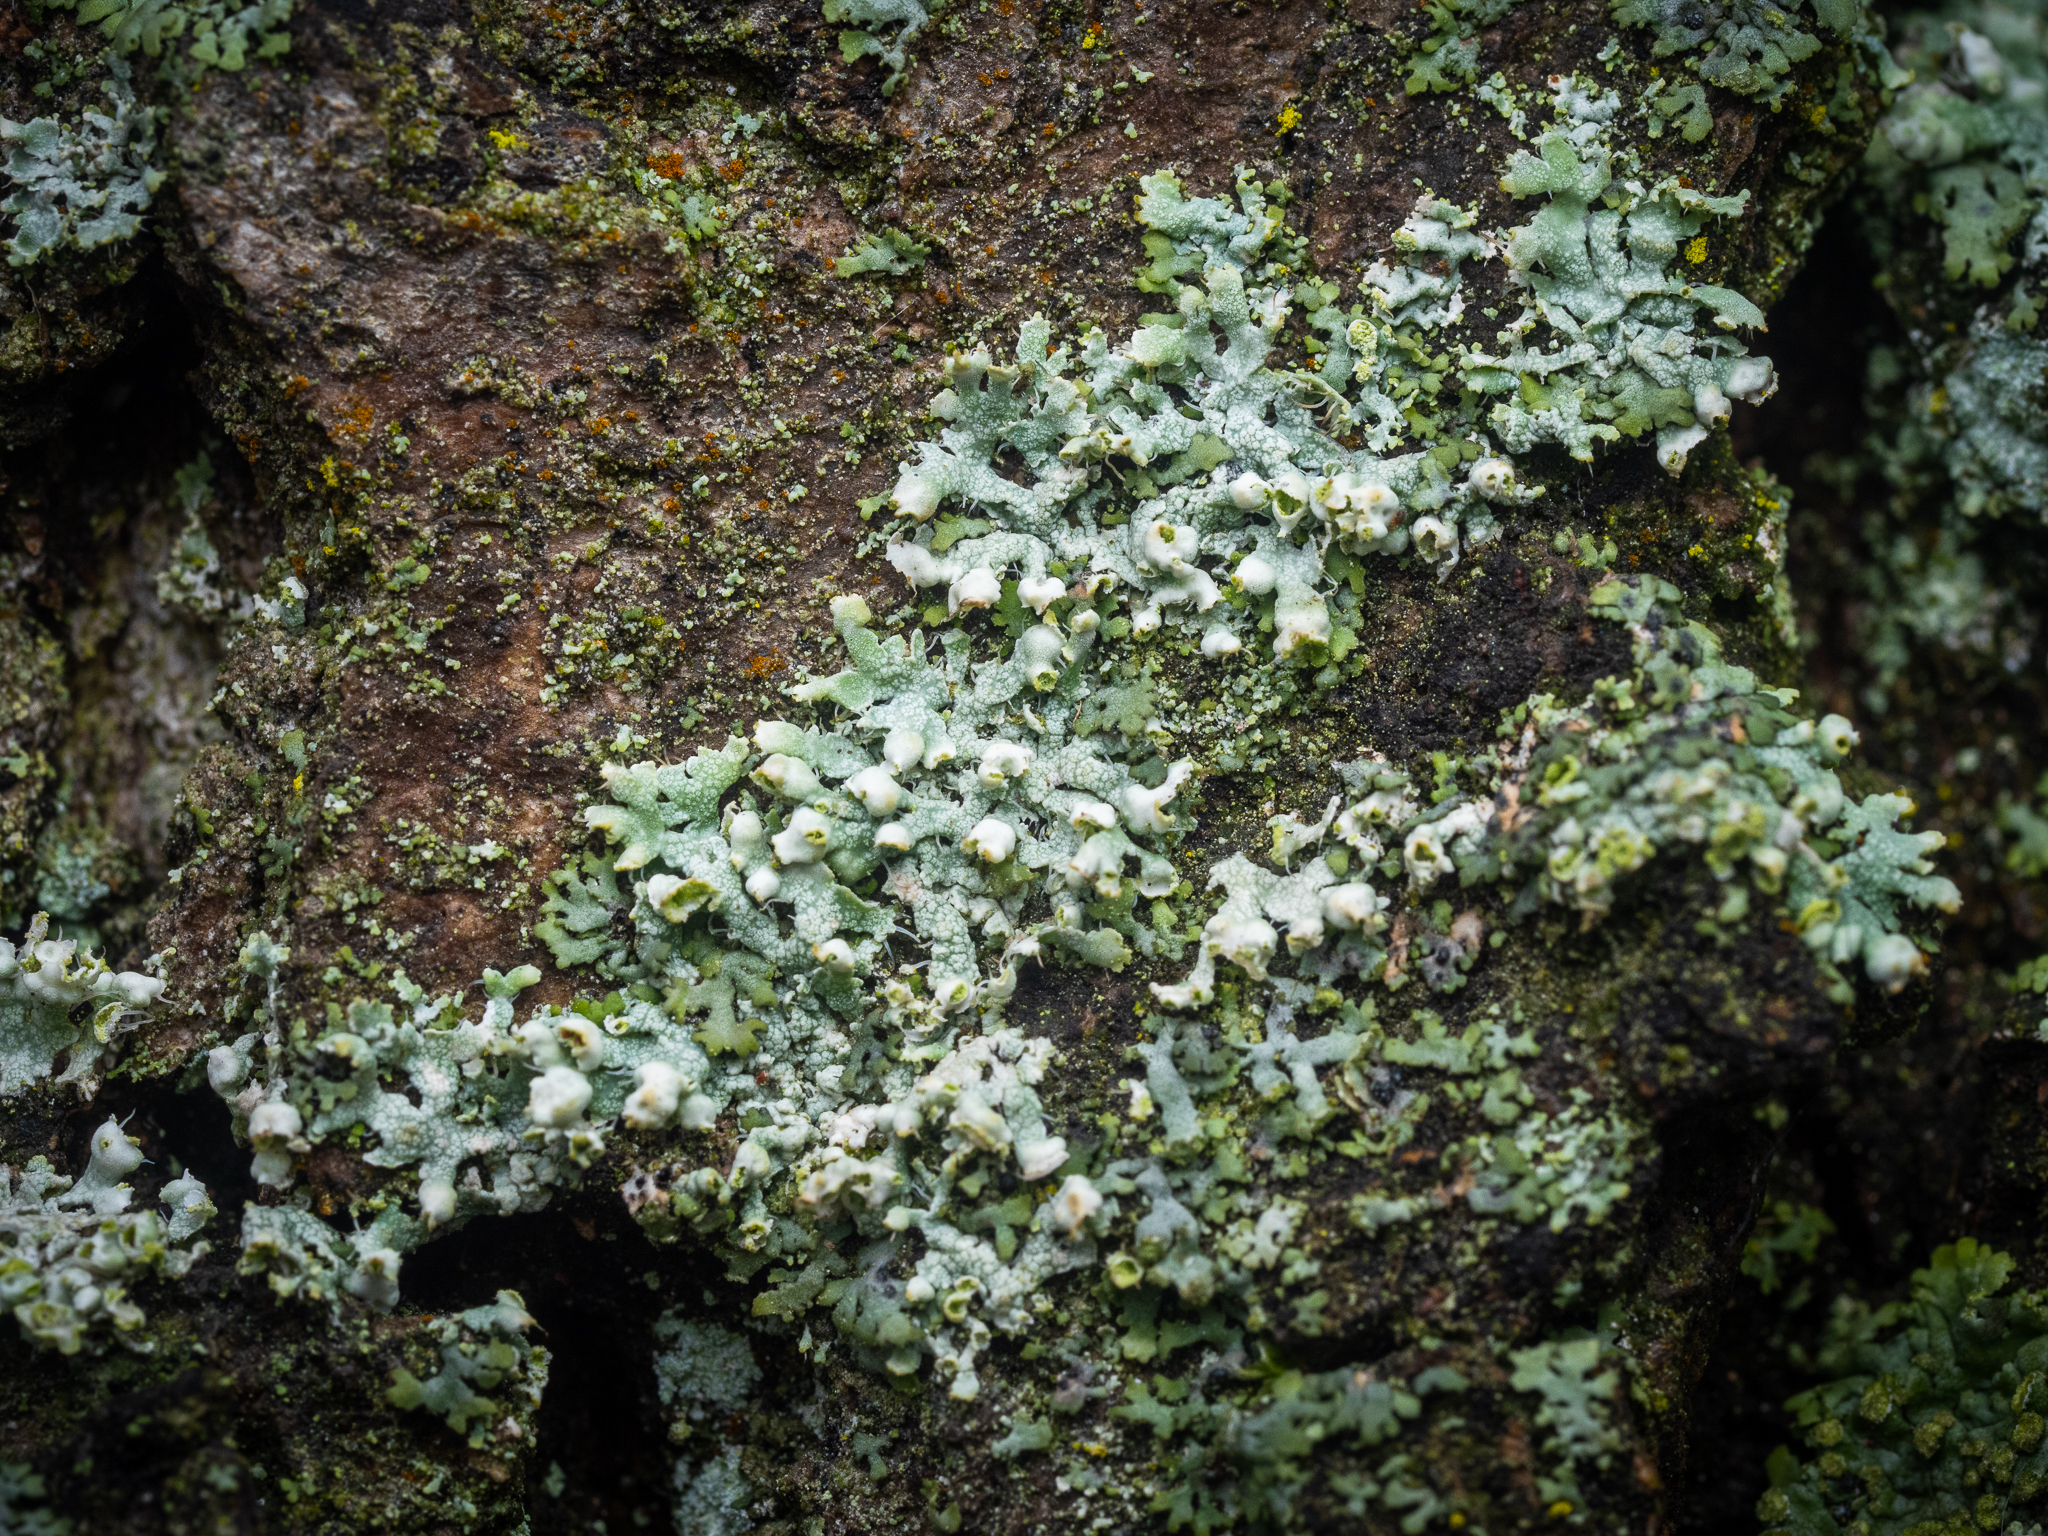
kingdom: Fungi
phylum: Ascomycota
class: Lecanoromycetes
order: Caliciales
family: Physciaceae
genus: Physcia
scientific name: Physcia adscendens
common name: Hooded rosette lichen
